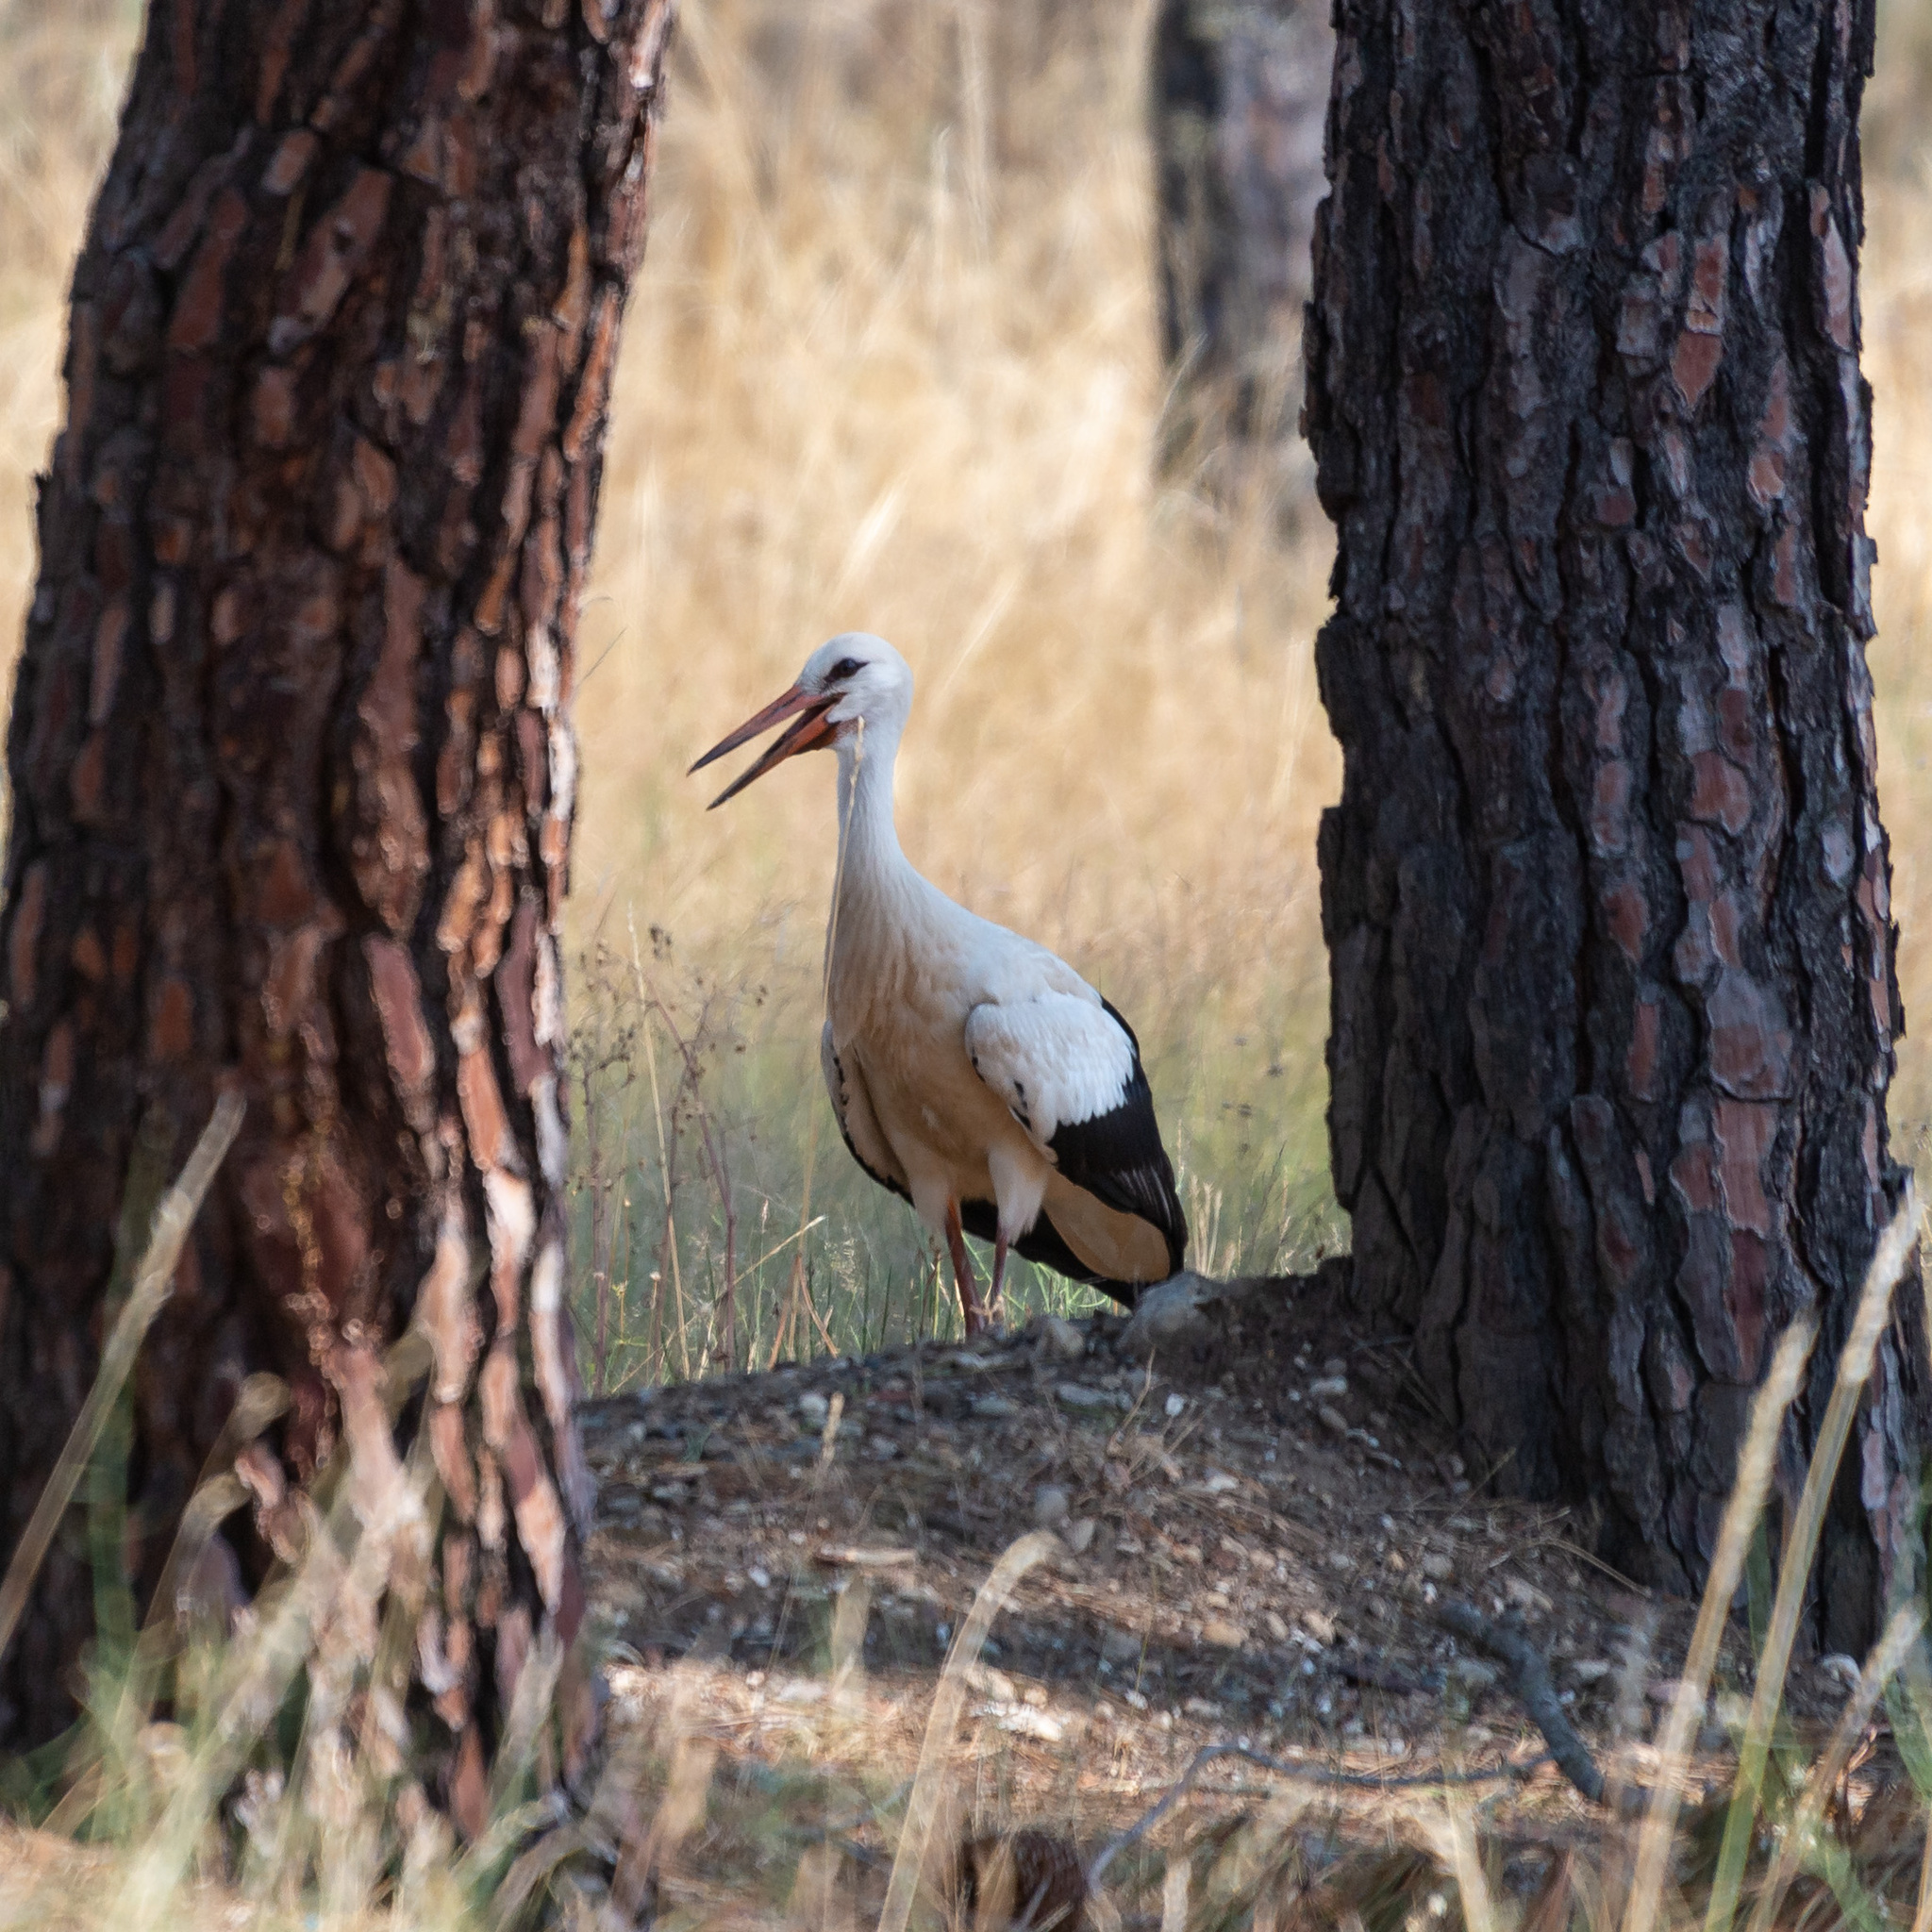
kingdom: Animalia
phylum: Chordata
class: Aves
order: Ciconiiformes
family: Ciconiidae
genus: Ciconia
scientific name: Ciconia ciconia
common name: White stork
